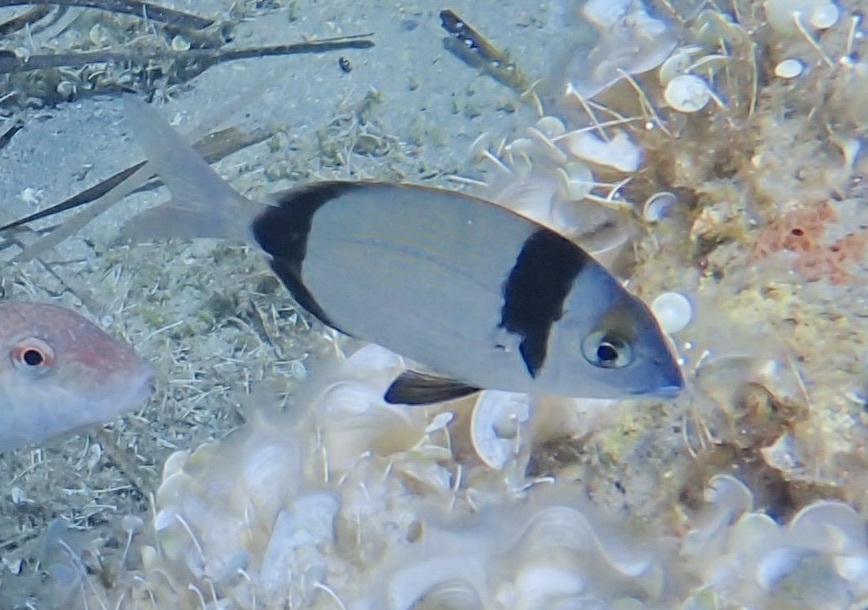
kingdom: Animalia
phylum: Chordata
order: Perciformes
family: Sparidae
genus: Diplodus
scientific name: Diplodus vulgaris
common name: Common two-banded seabream
